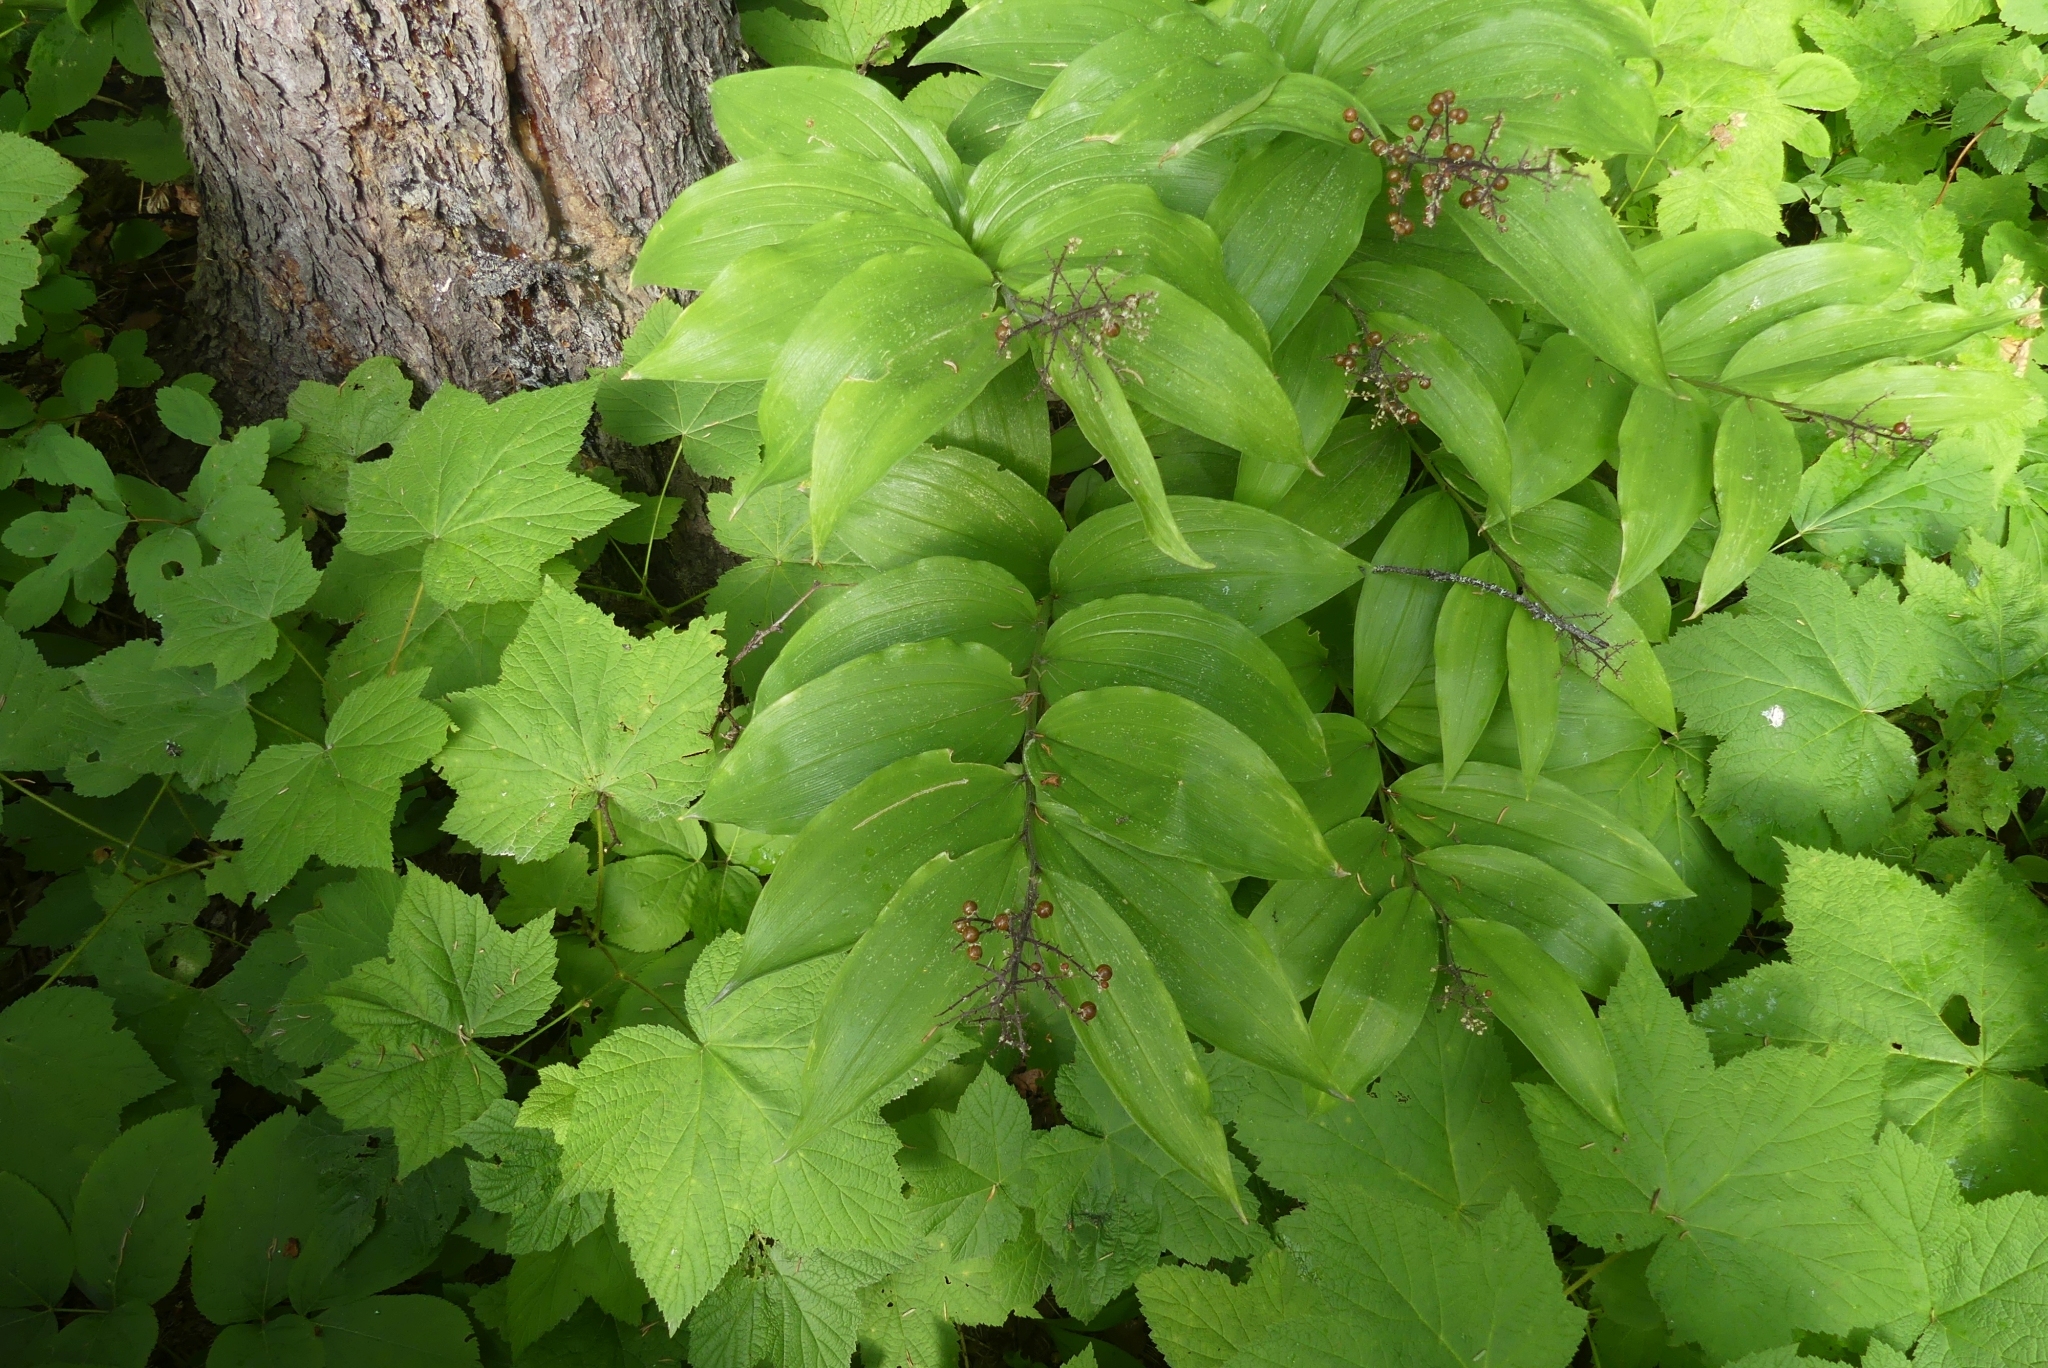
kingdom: Plantae
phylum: Tracheophyta
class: Liliopsida
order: Asparagales
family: Asparagaceae
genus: Maianthemum
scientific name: Maianthemum racemosum
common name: False spikenard
